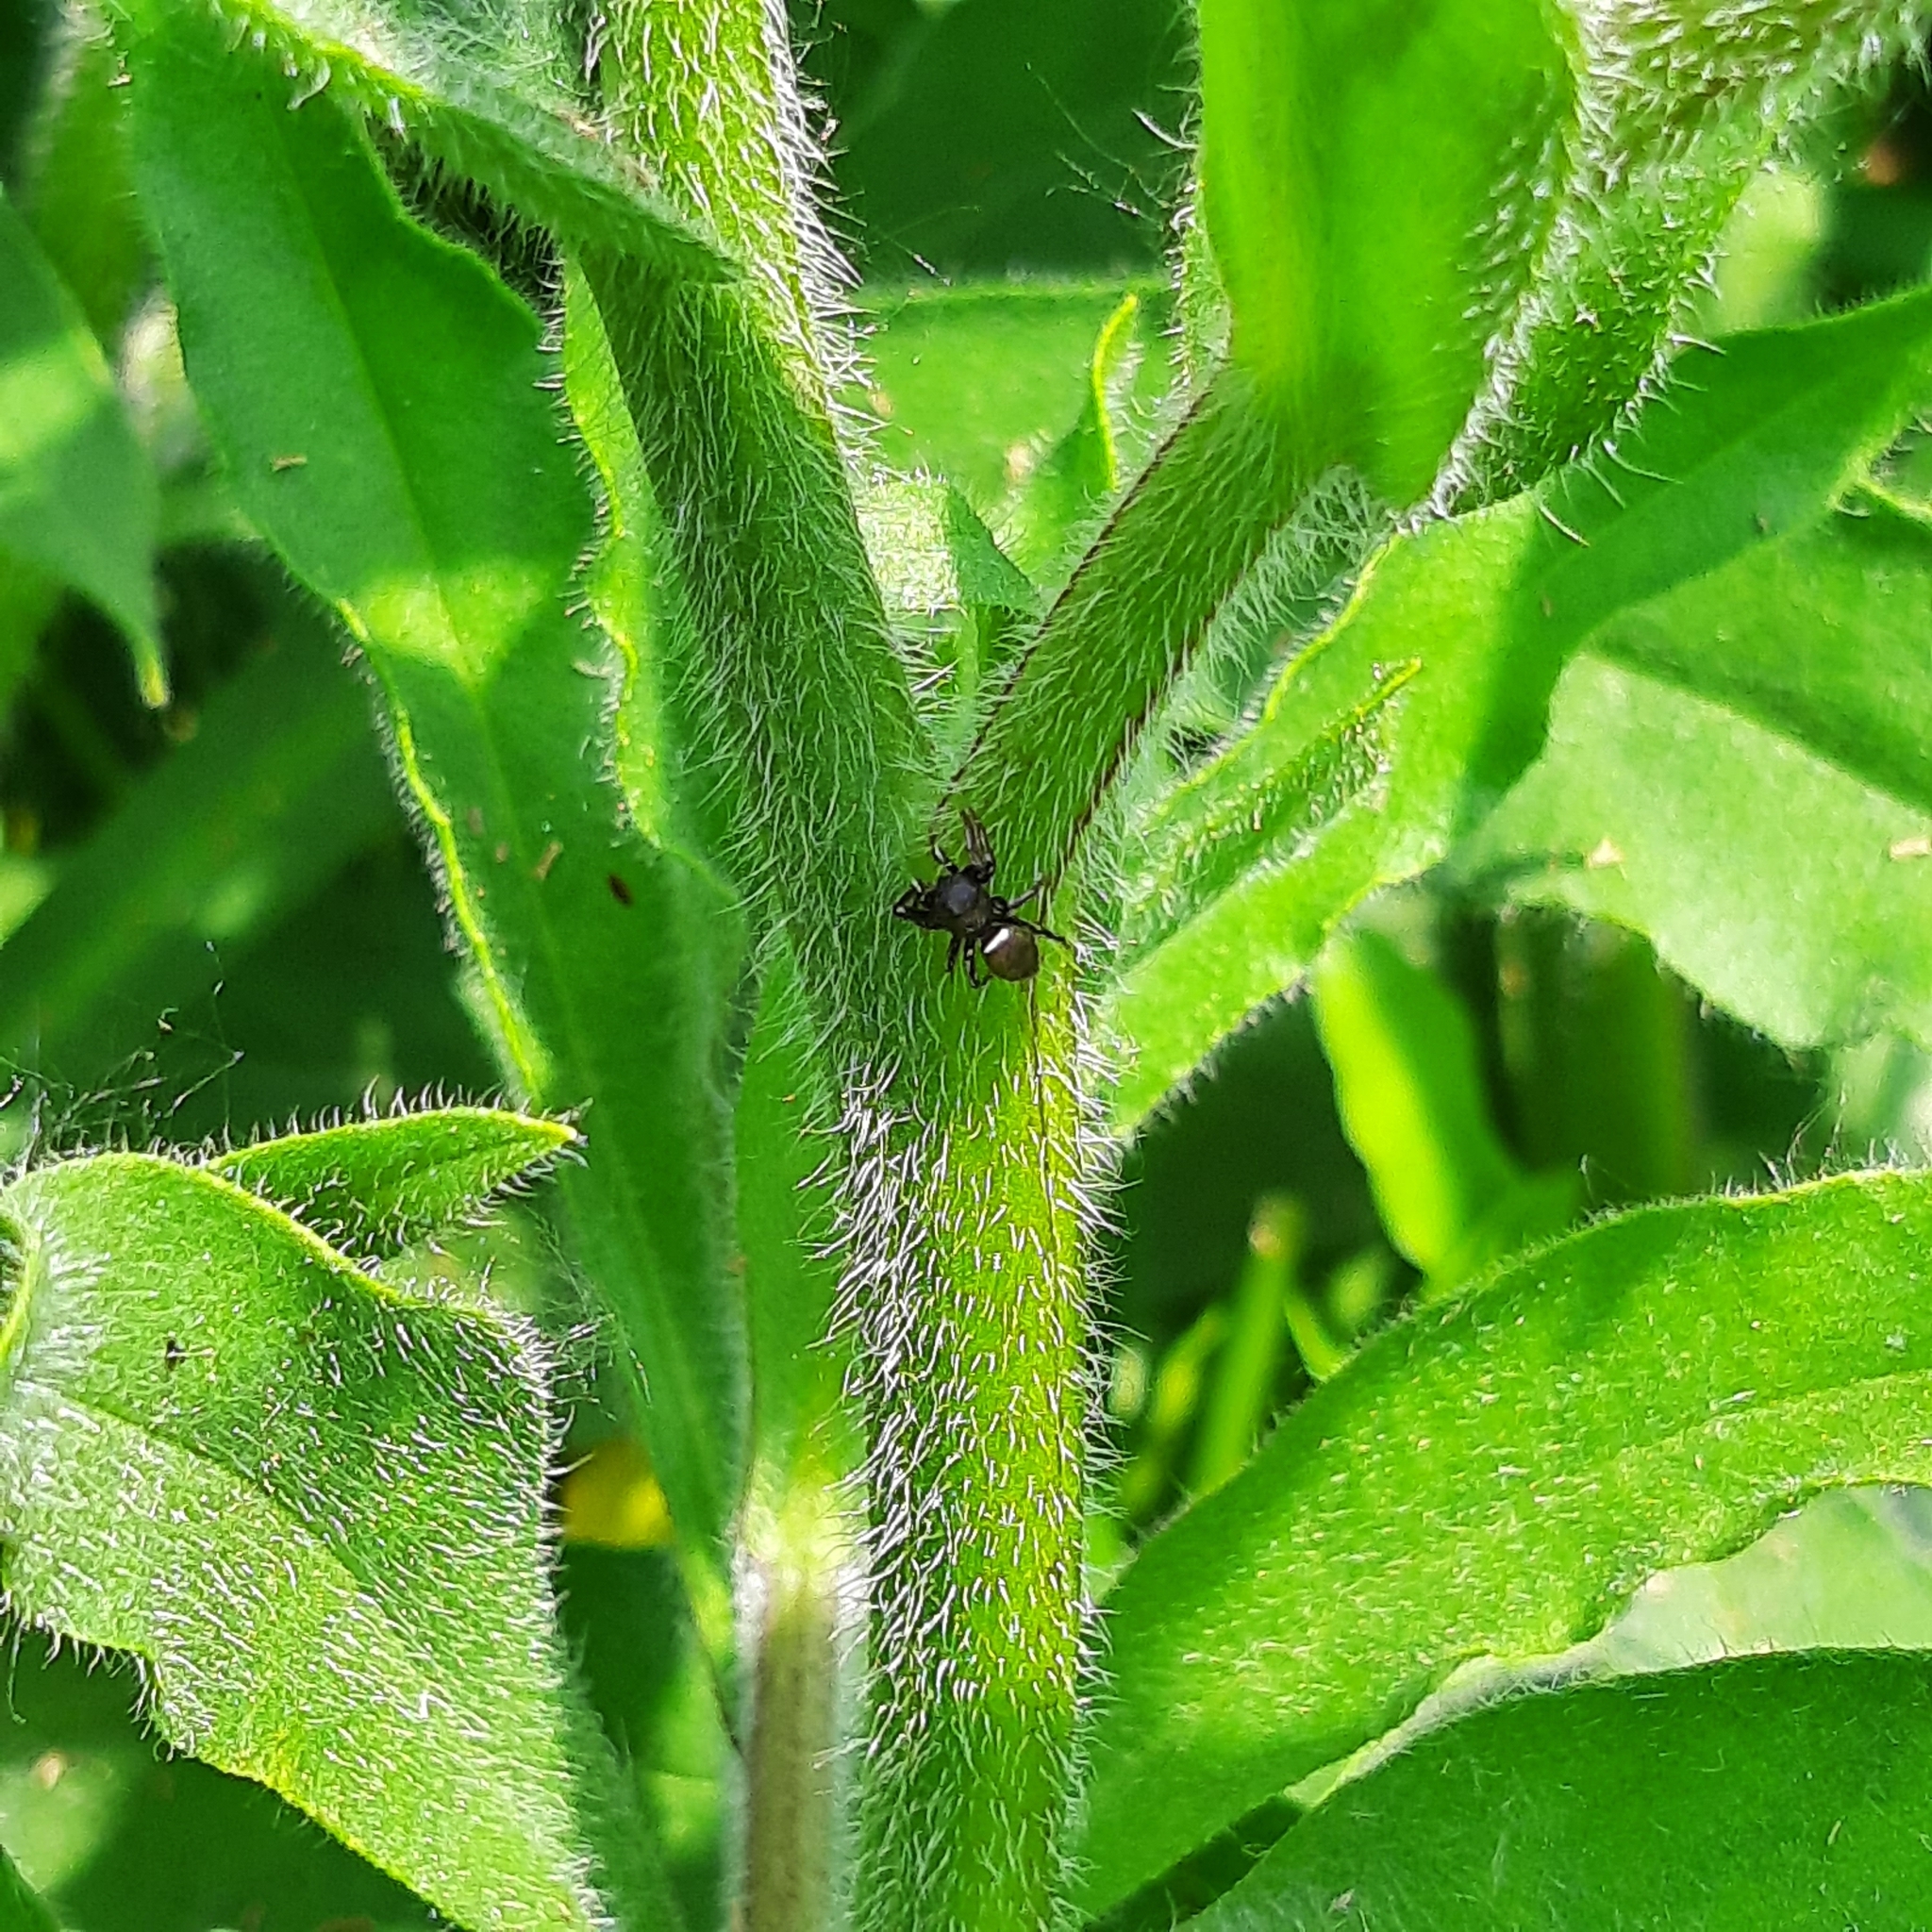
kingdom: Animalia
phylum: Arthropoda
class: Arachnida
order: Araneae
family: Salticidae
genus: Heliophanus
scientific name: Heliophanus
